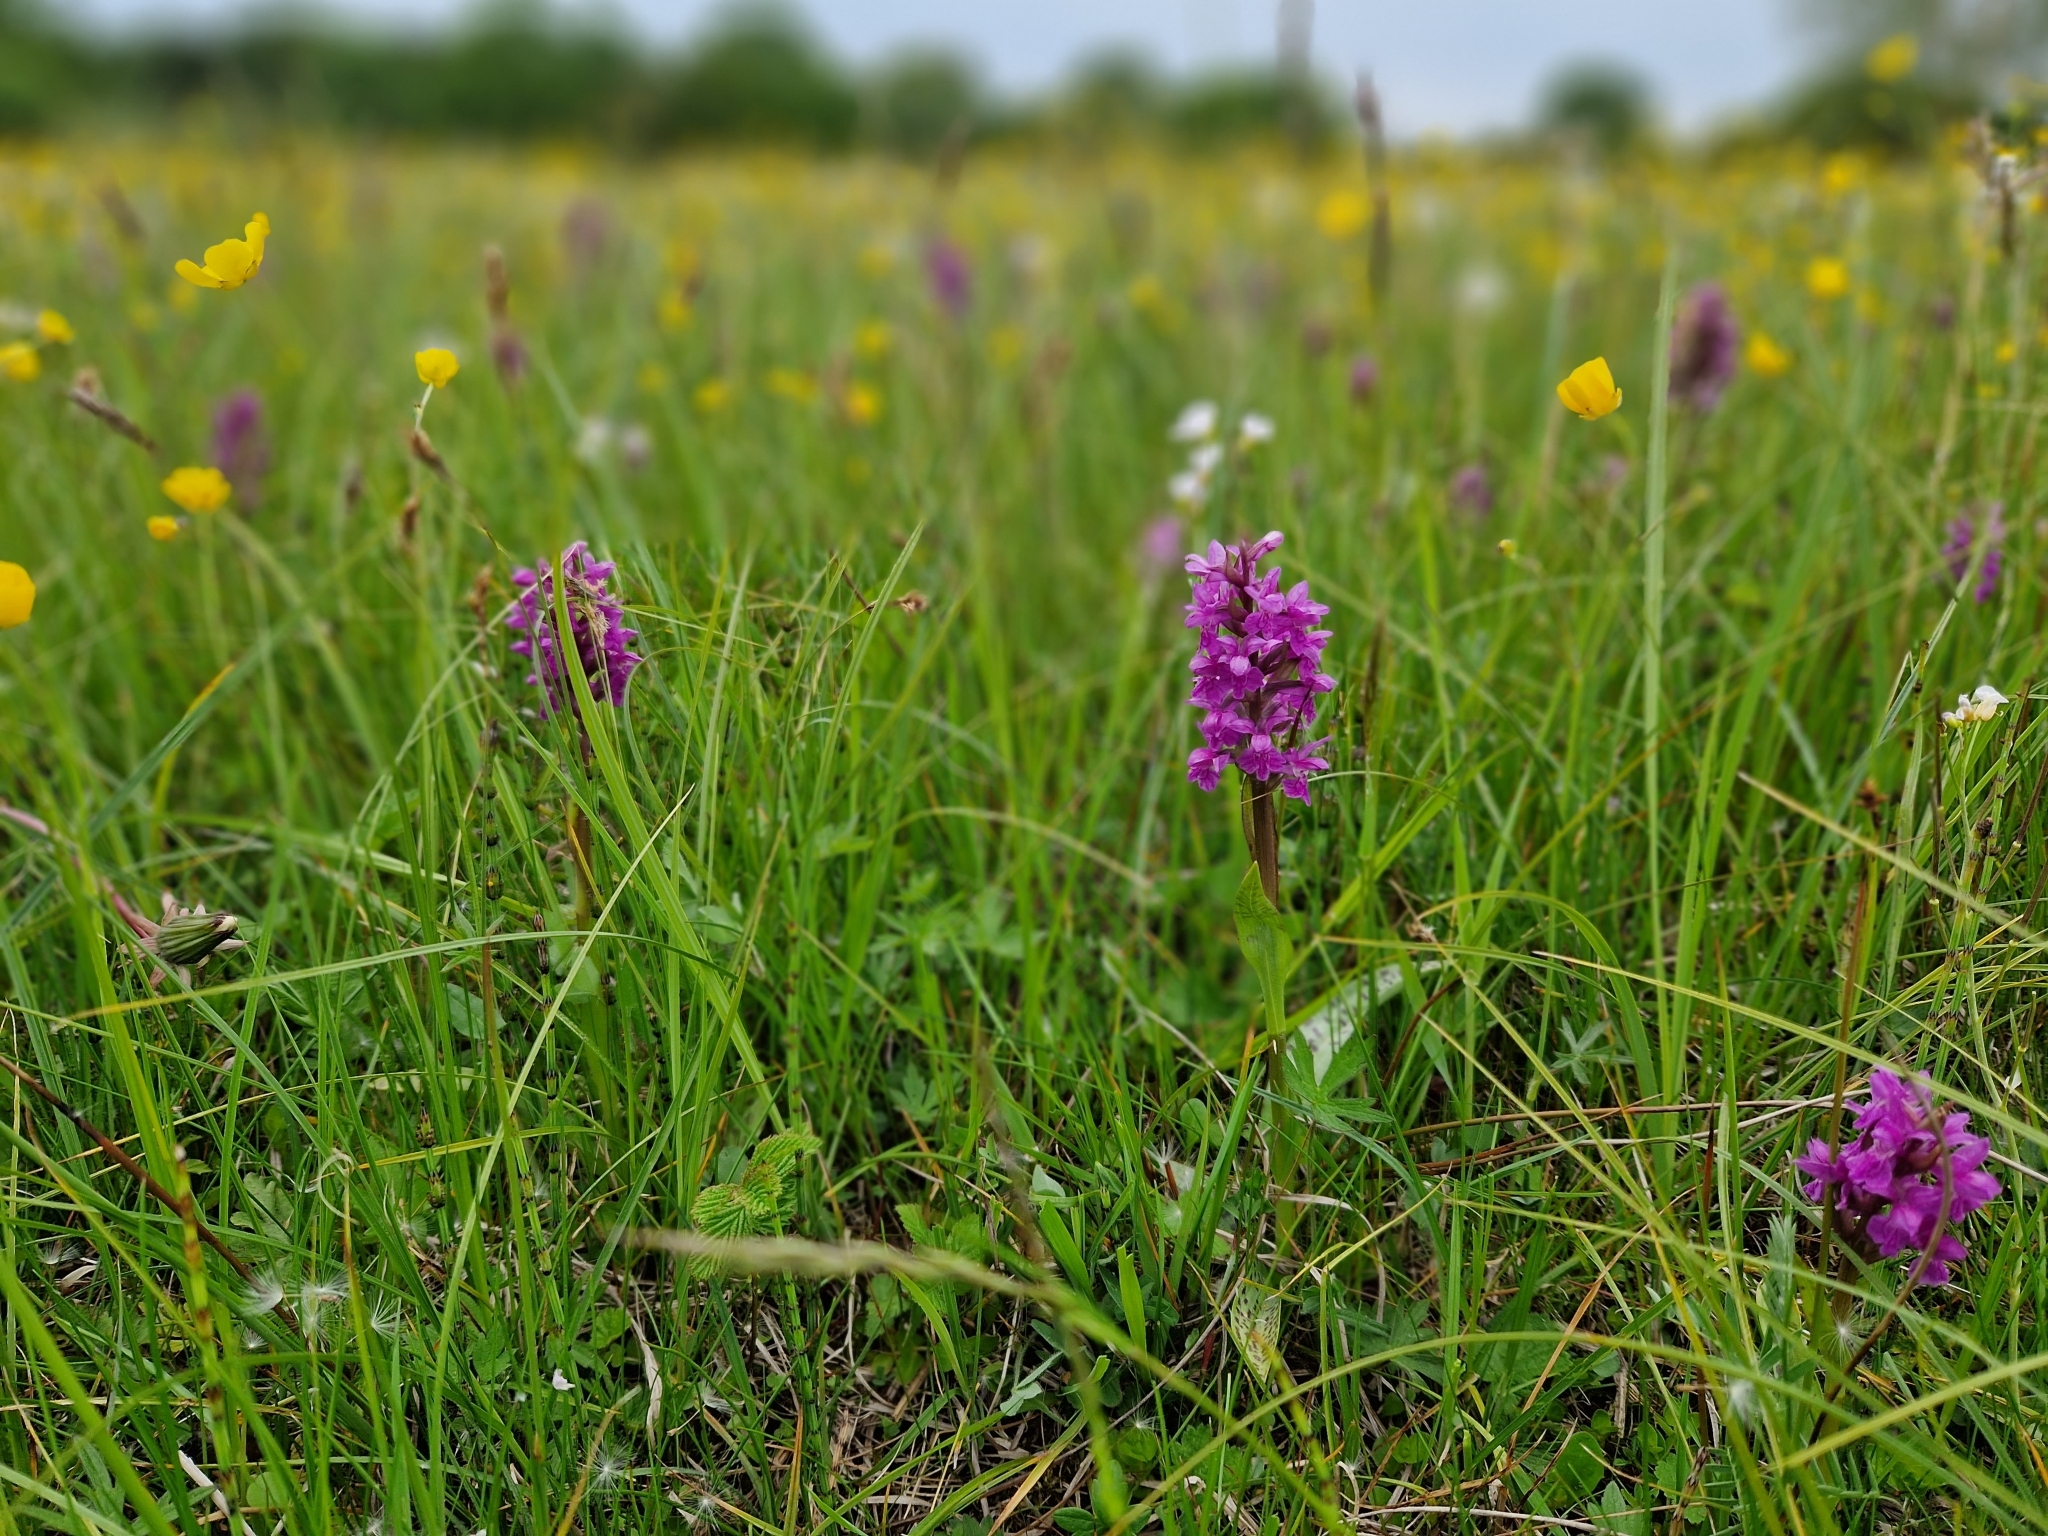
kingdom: Plantae
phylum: Tracheophyta
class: Liliopsida
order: Asparagales
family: Orchidaceae
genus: Dactylorhiza
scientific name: Dactylorhiza majalis
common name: Marsh orchid
